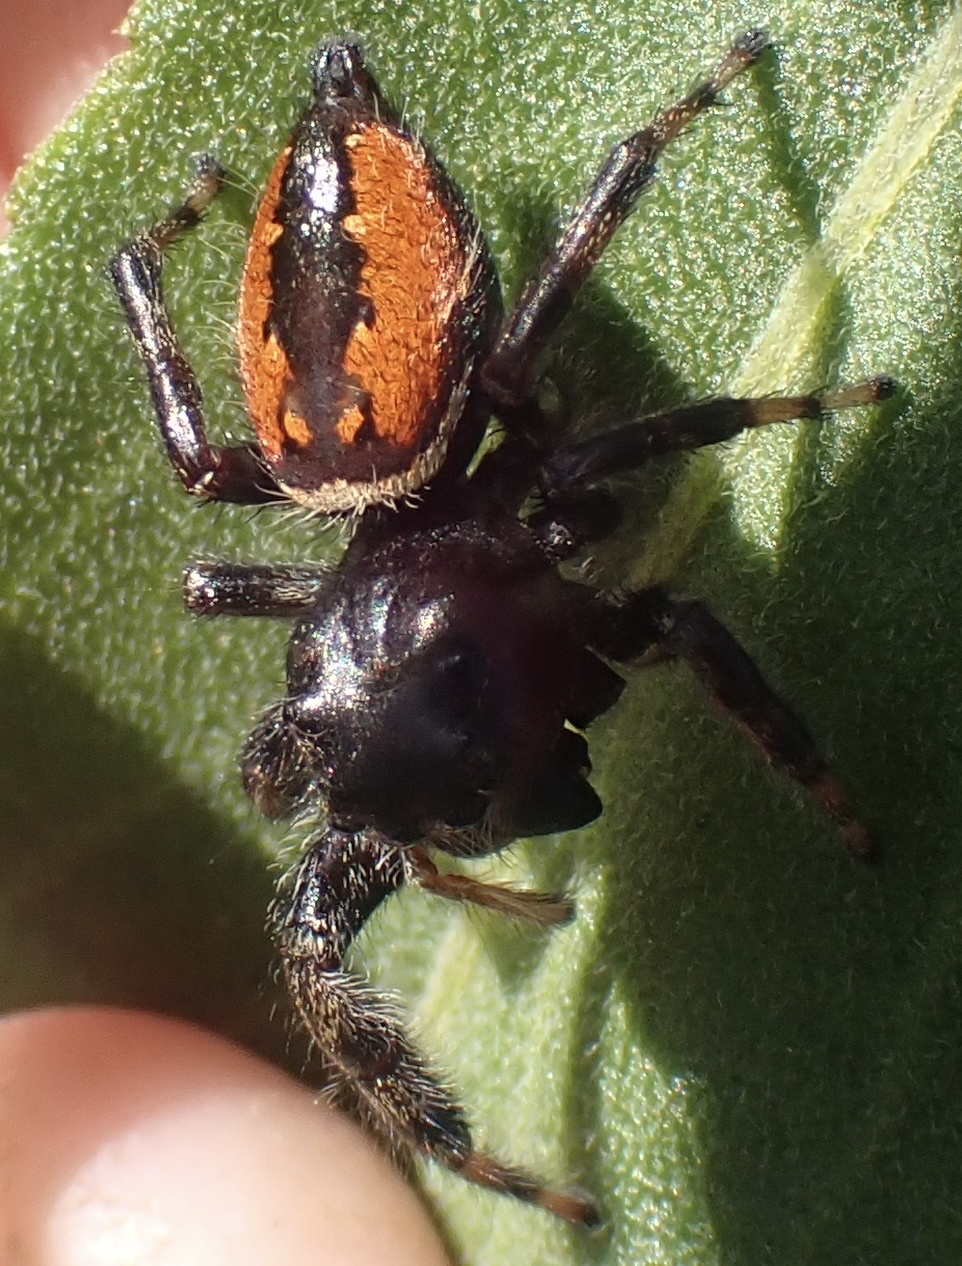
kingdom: Animalia
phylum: Arthropoda
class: Arachnida
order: Araneae
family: Salticidae
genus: Phidippus
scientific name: Phidippus clarus
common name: Brilliant jumping spider
